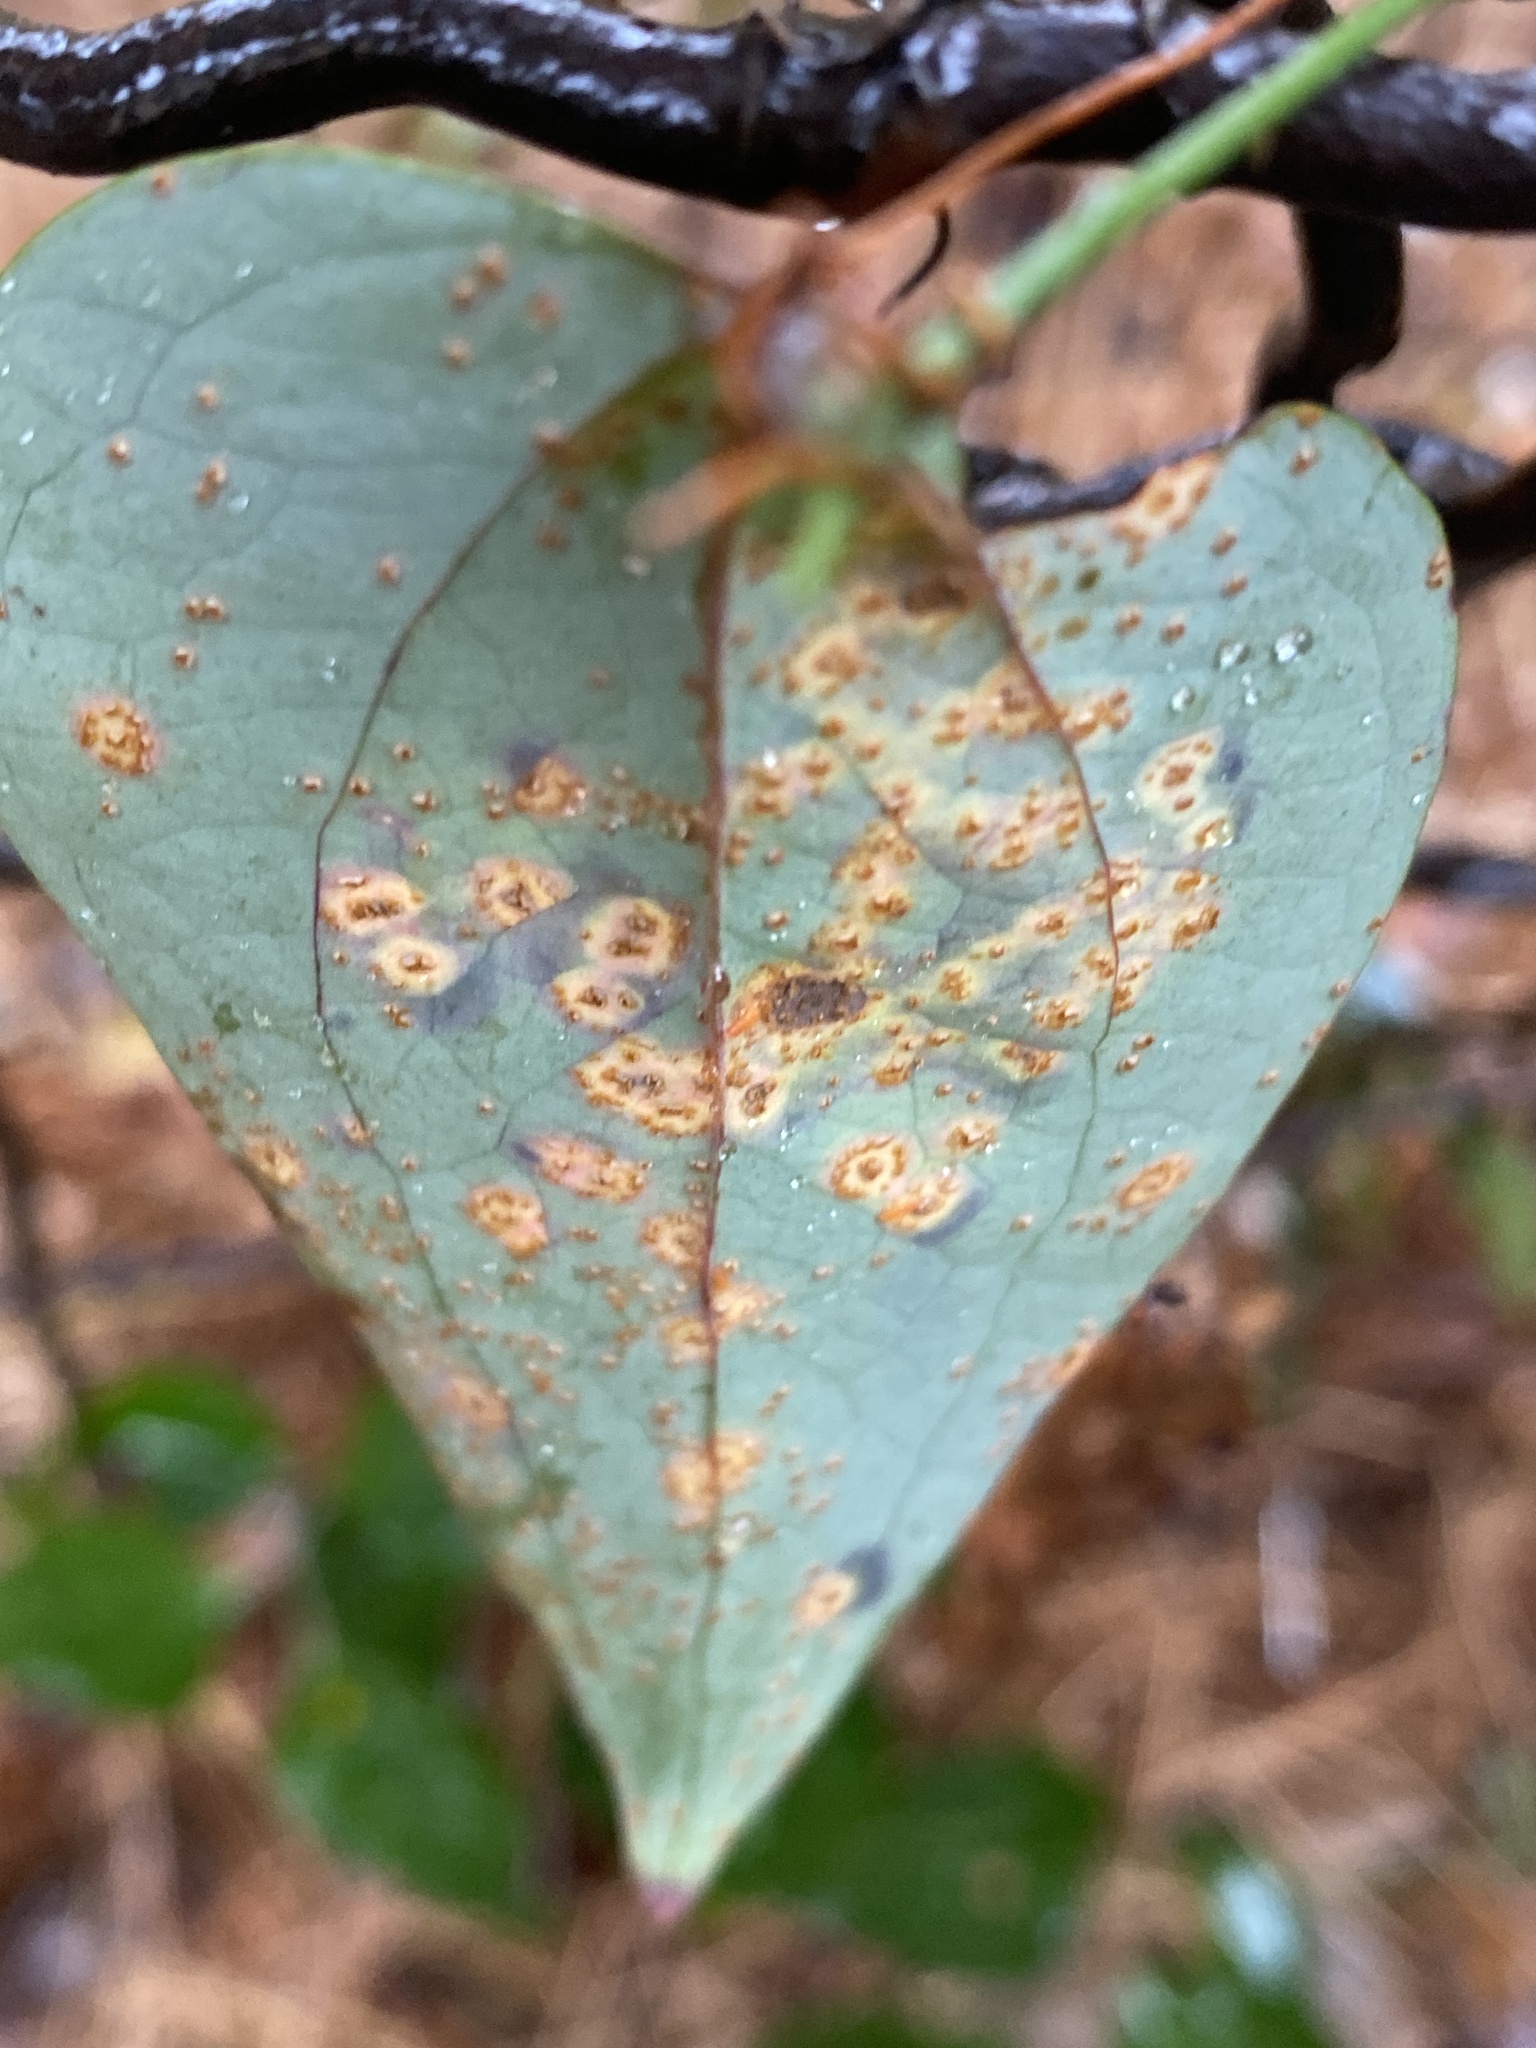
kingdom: Fungi
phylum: Basidiomycota
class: Pucciniomycetes
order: Pucciniales
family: Pucciniaceae
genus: Puccinia
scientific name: Puccinia smilacis
